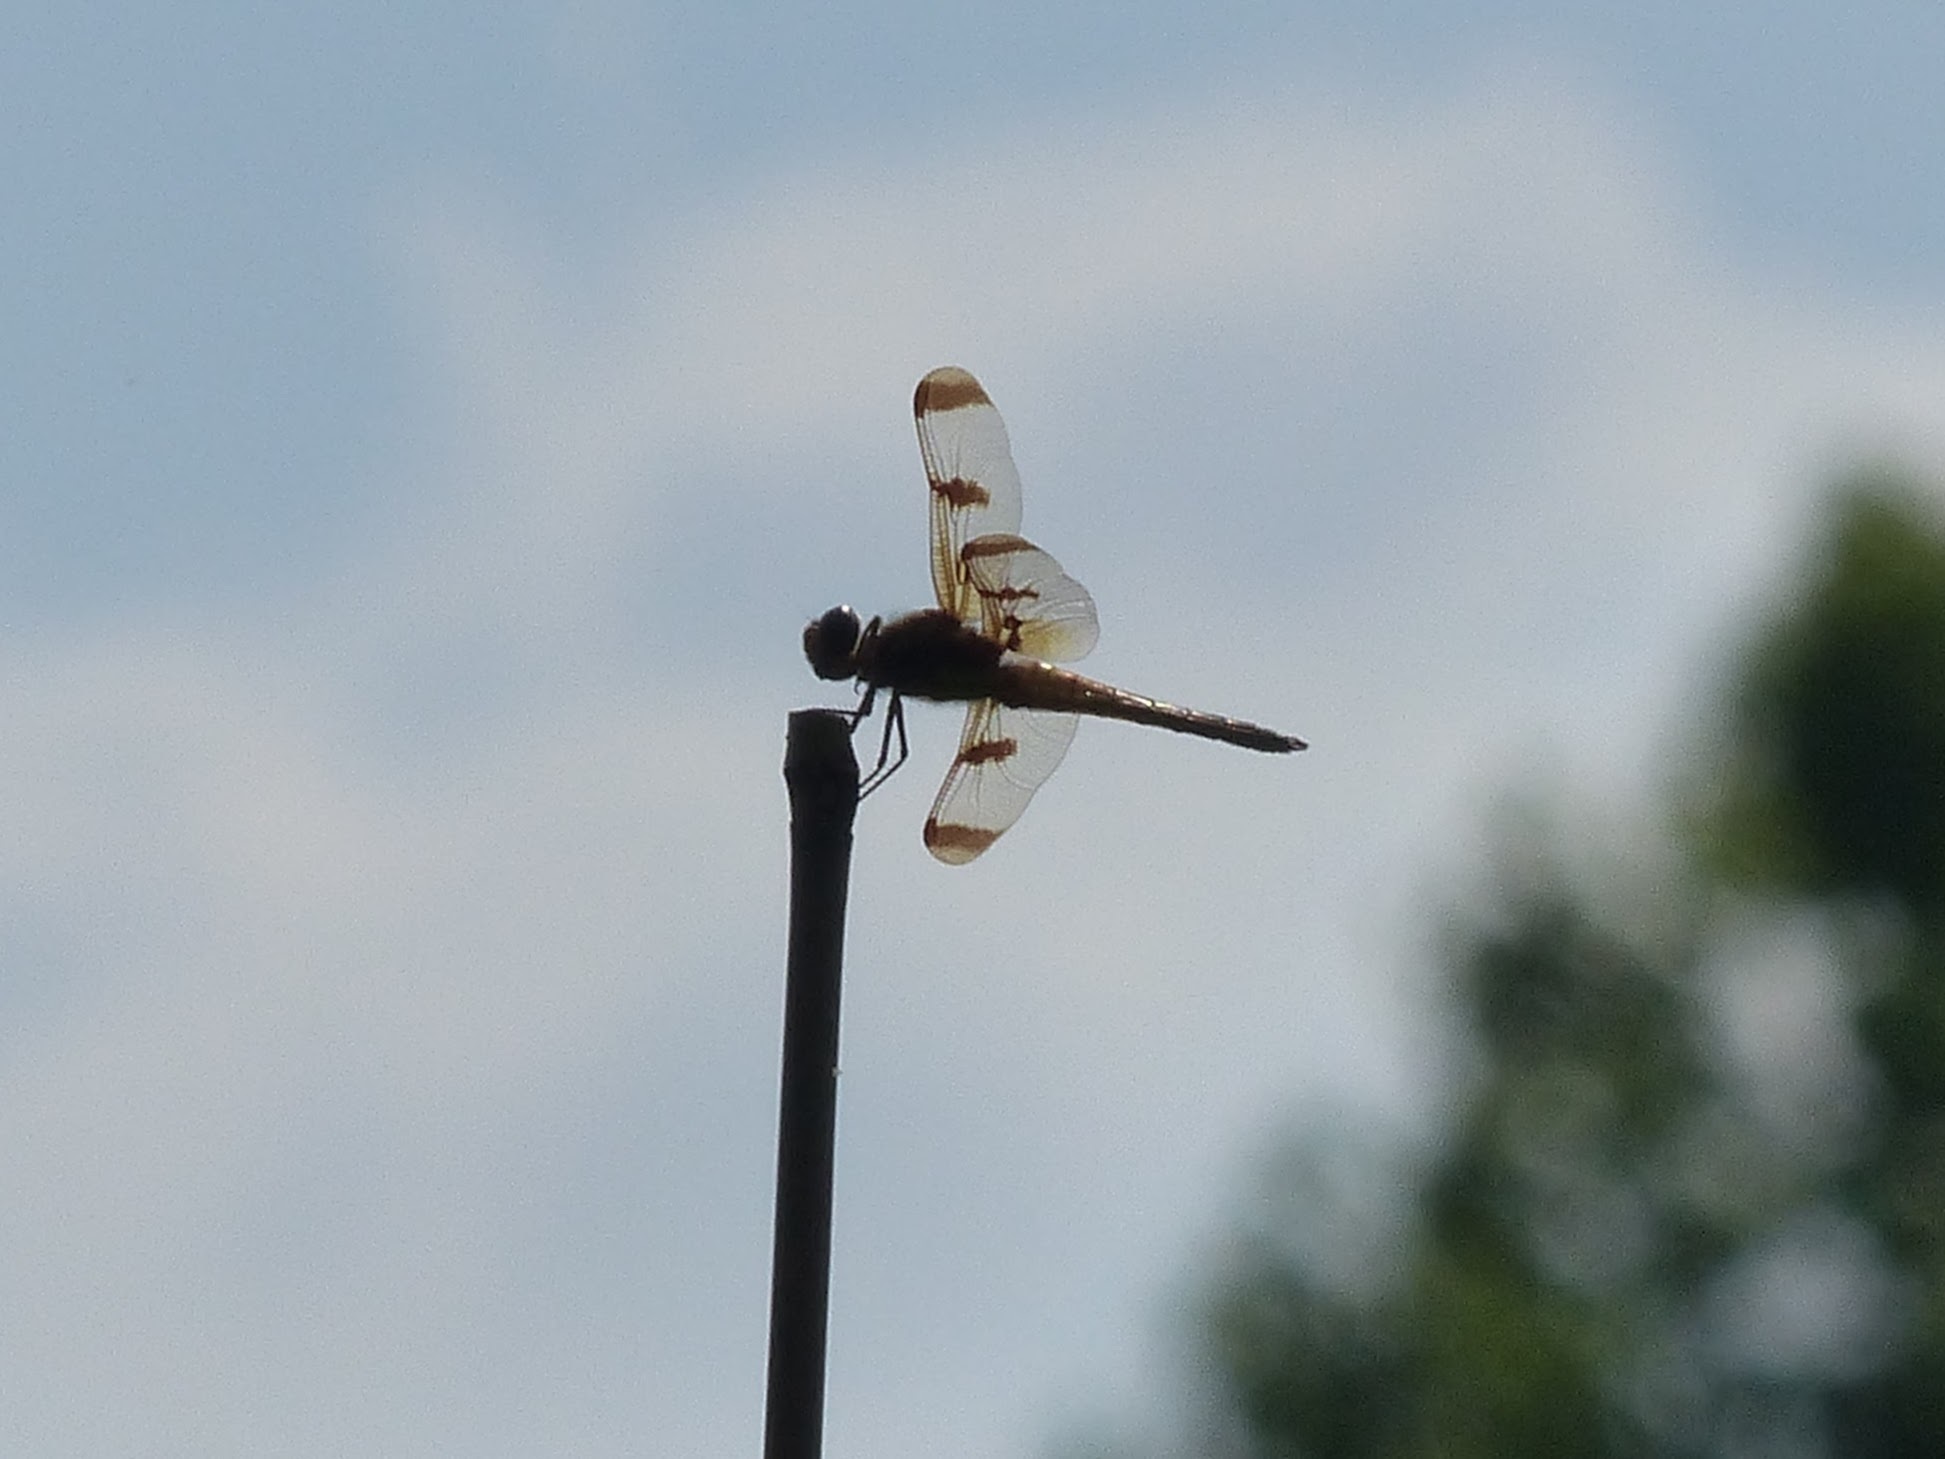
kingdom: Animalia
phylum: Arthropoda
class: Insecta
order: Odonata
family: Libellulidae
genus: Libellula
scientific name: Libellula semifasciata
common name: Painted skimmer
